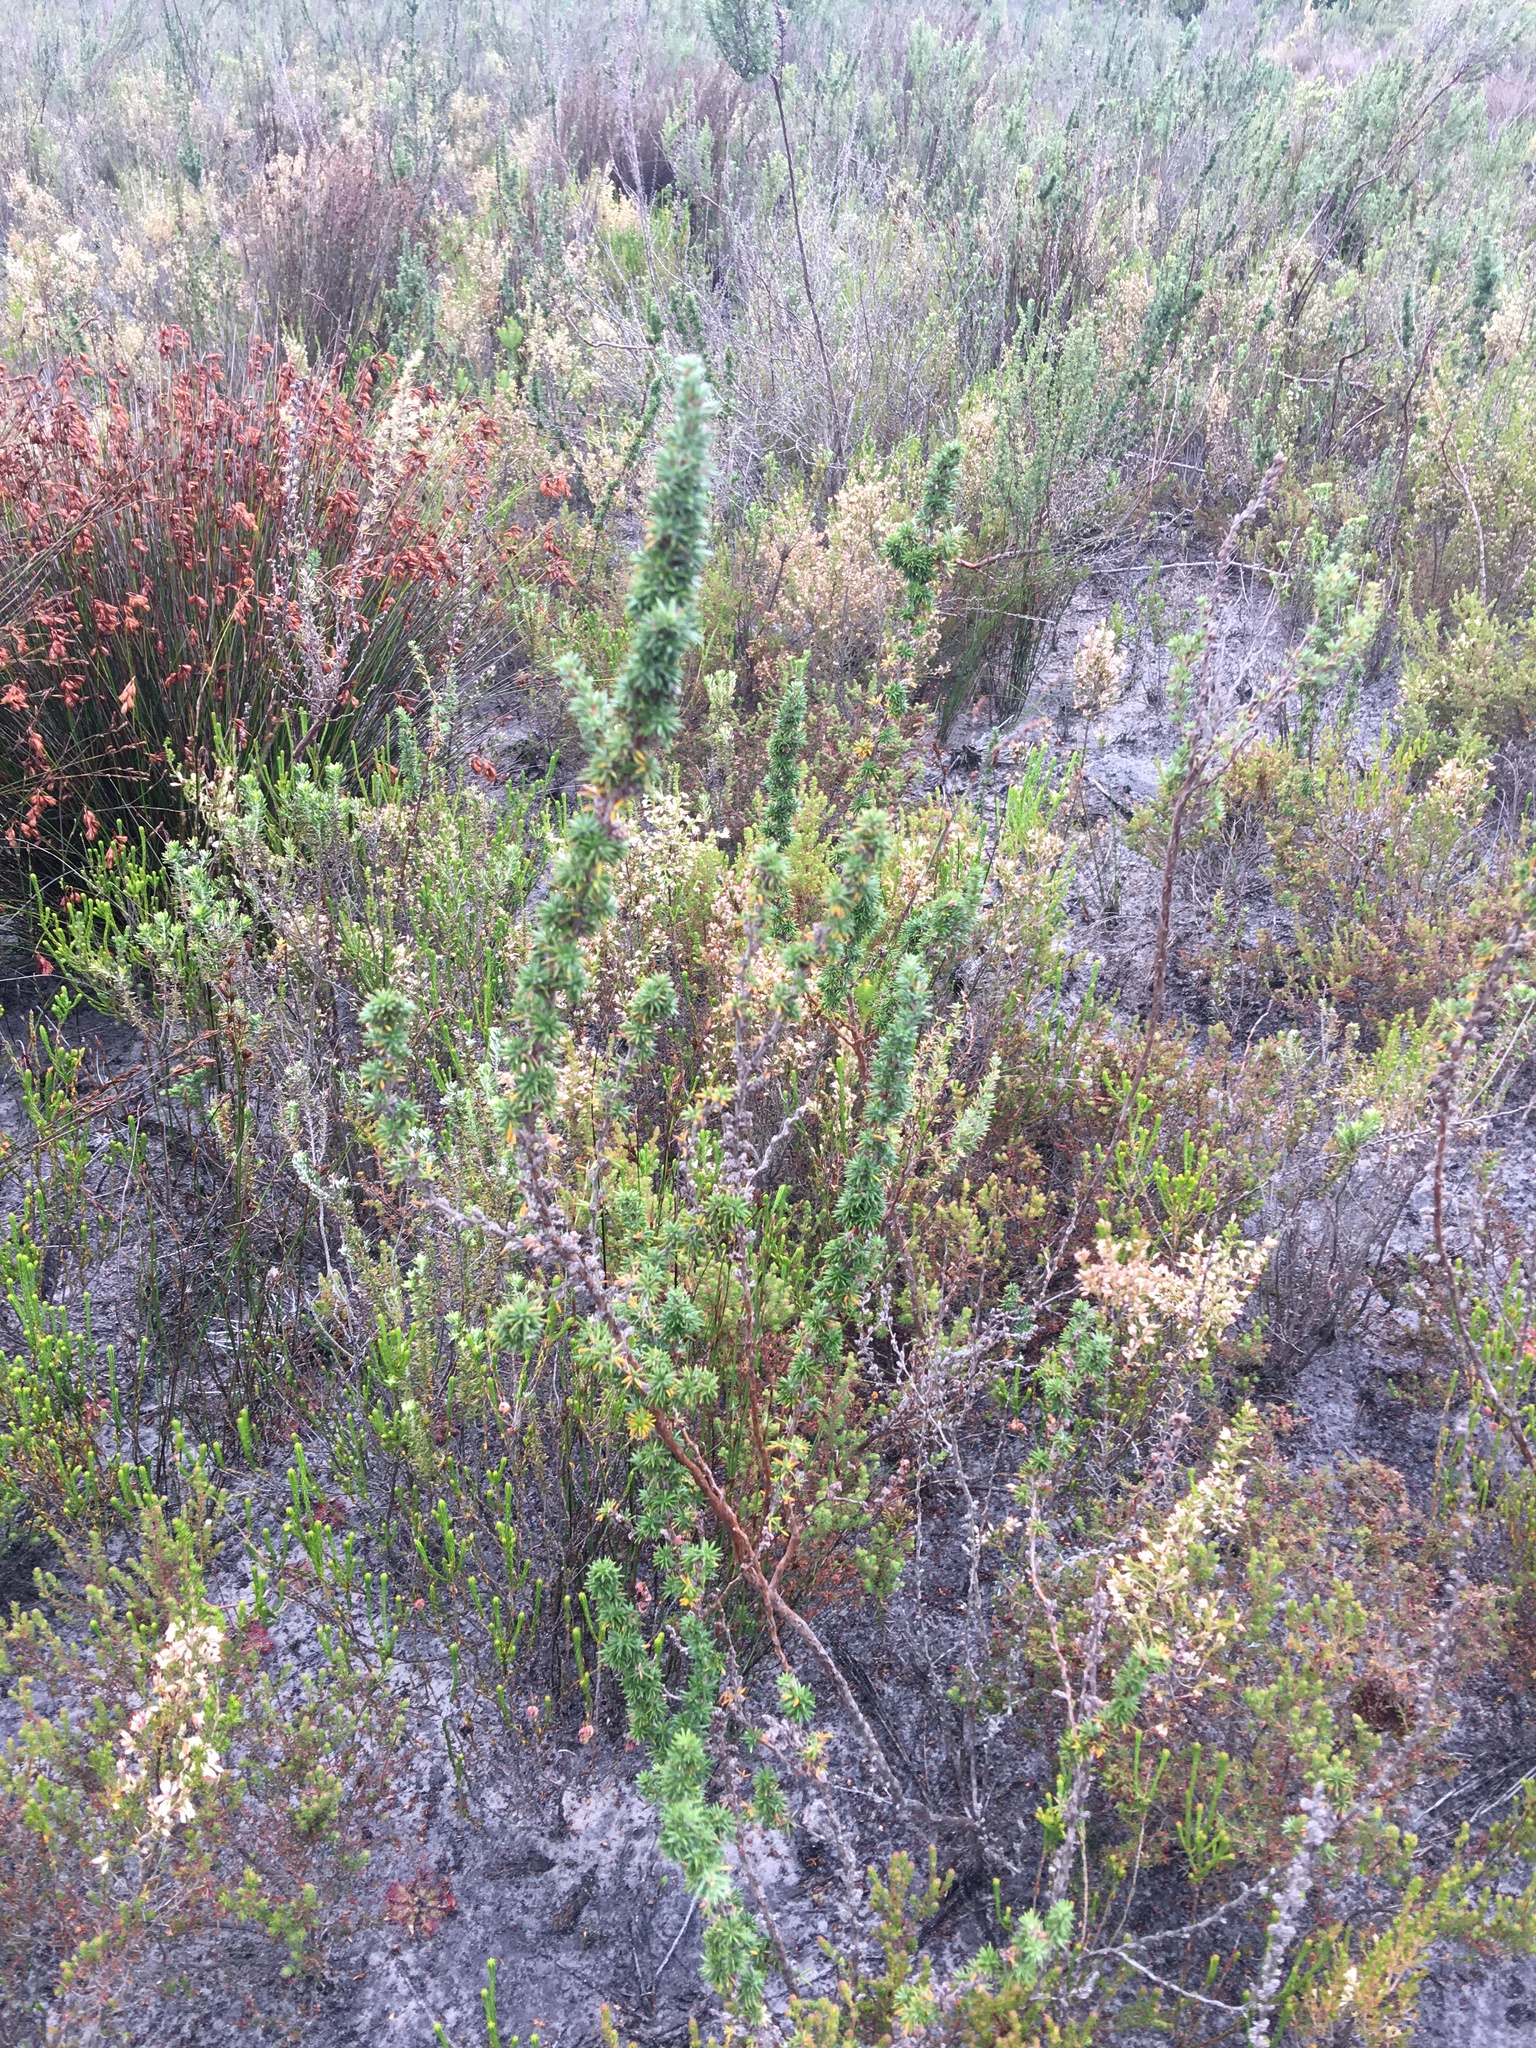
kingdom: Plantae
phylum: Tracheophyta
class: Magnoliopsida
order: Rosales
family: Rosaceae
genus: Cliffortia
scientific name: Cliffortia stricta
